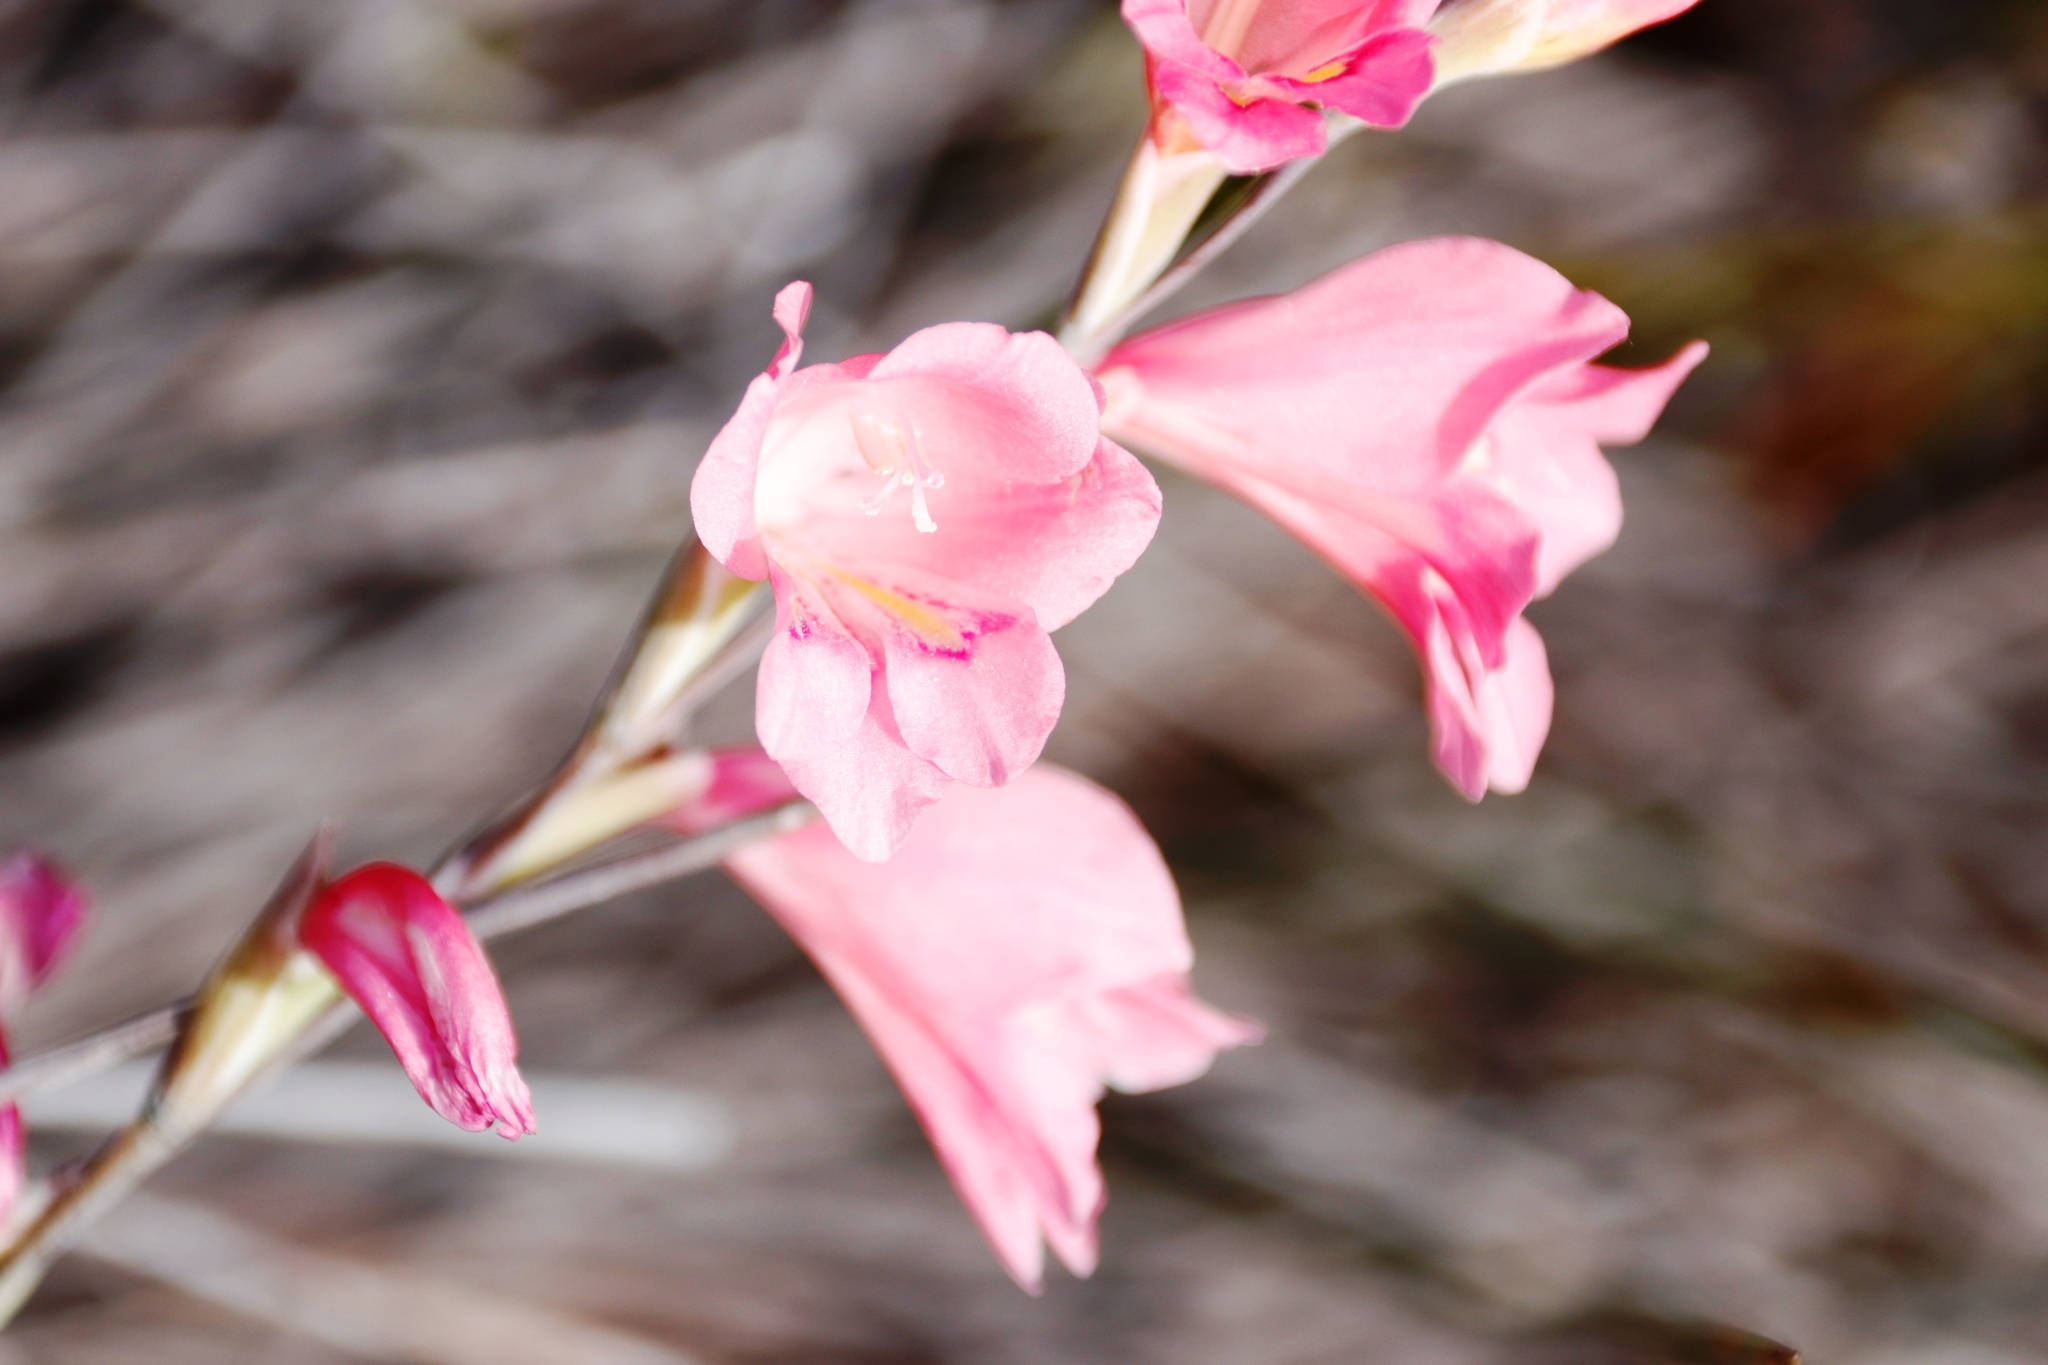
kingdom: Plantae
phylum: Tracheophyta
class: Liliopsida
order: Asparagales
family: Iridaceae
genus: Gladiolus
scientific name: Gladiolus brevifolius
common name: March pypie
